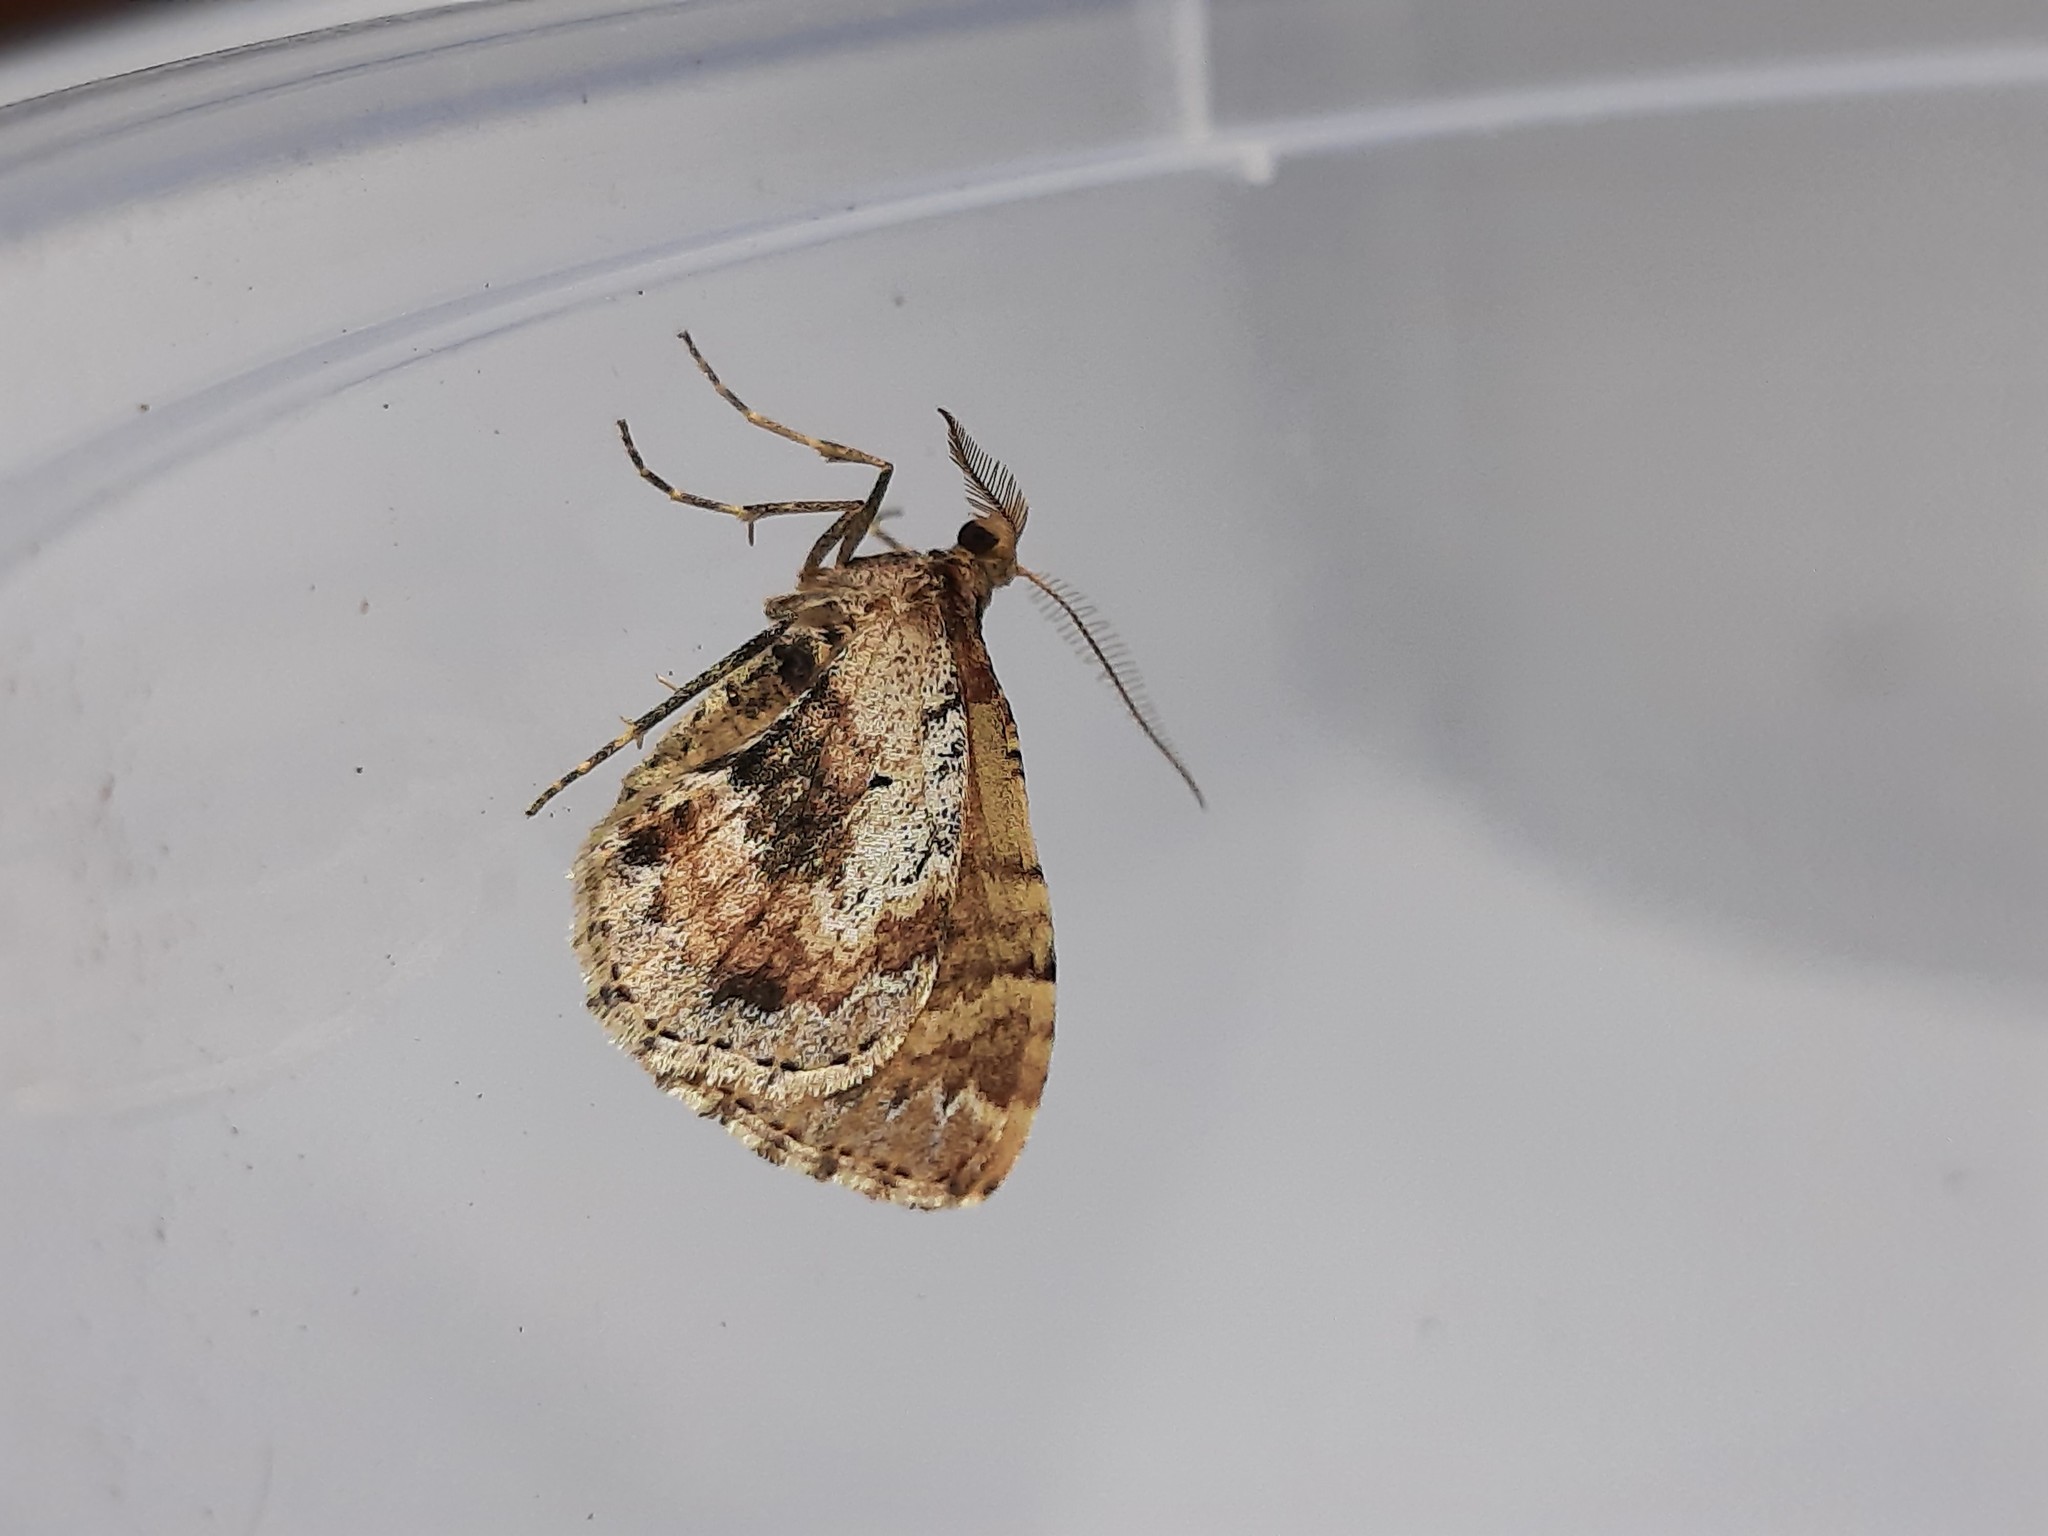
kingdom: Animalia
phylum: Arthropoda
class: Insecta
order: Lepidoptera
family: Geometridae
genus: Asaphodes
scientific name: Asaphodes aegrota
